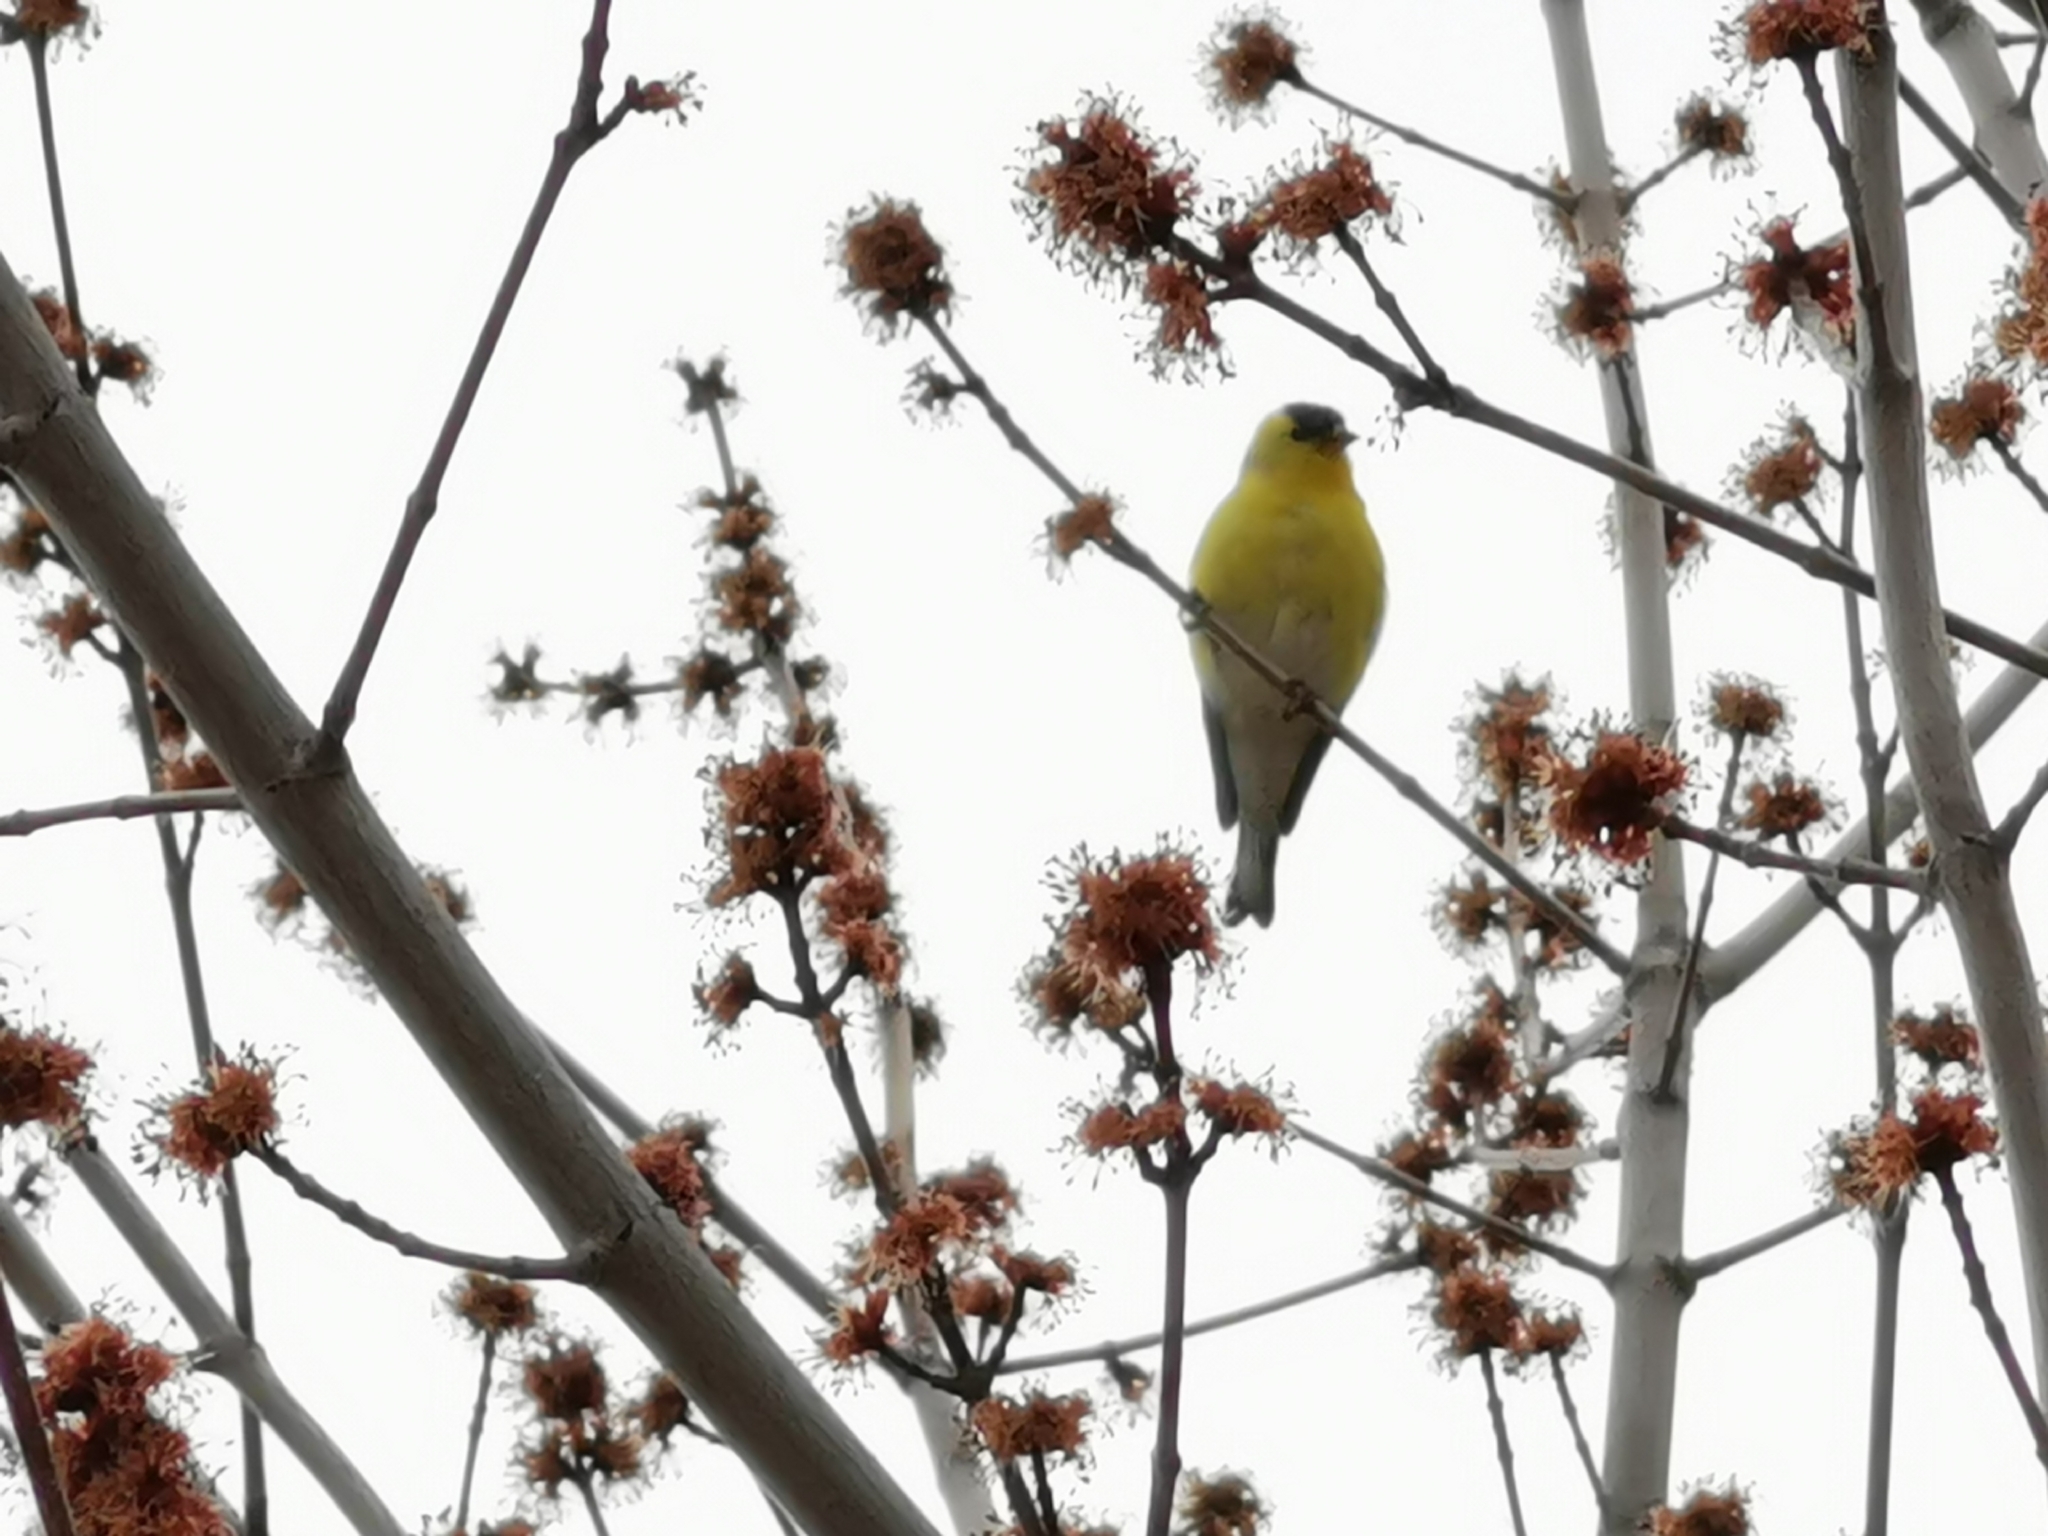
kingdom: Animalia
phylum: Chordata
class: Aves
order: Passeriformes
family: Fringillidae
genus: Spinus
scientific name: Spinus tristis
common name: American goldfinch
